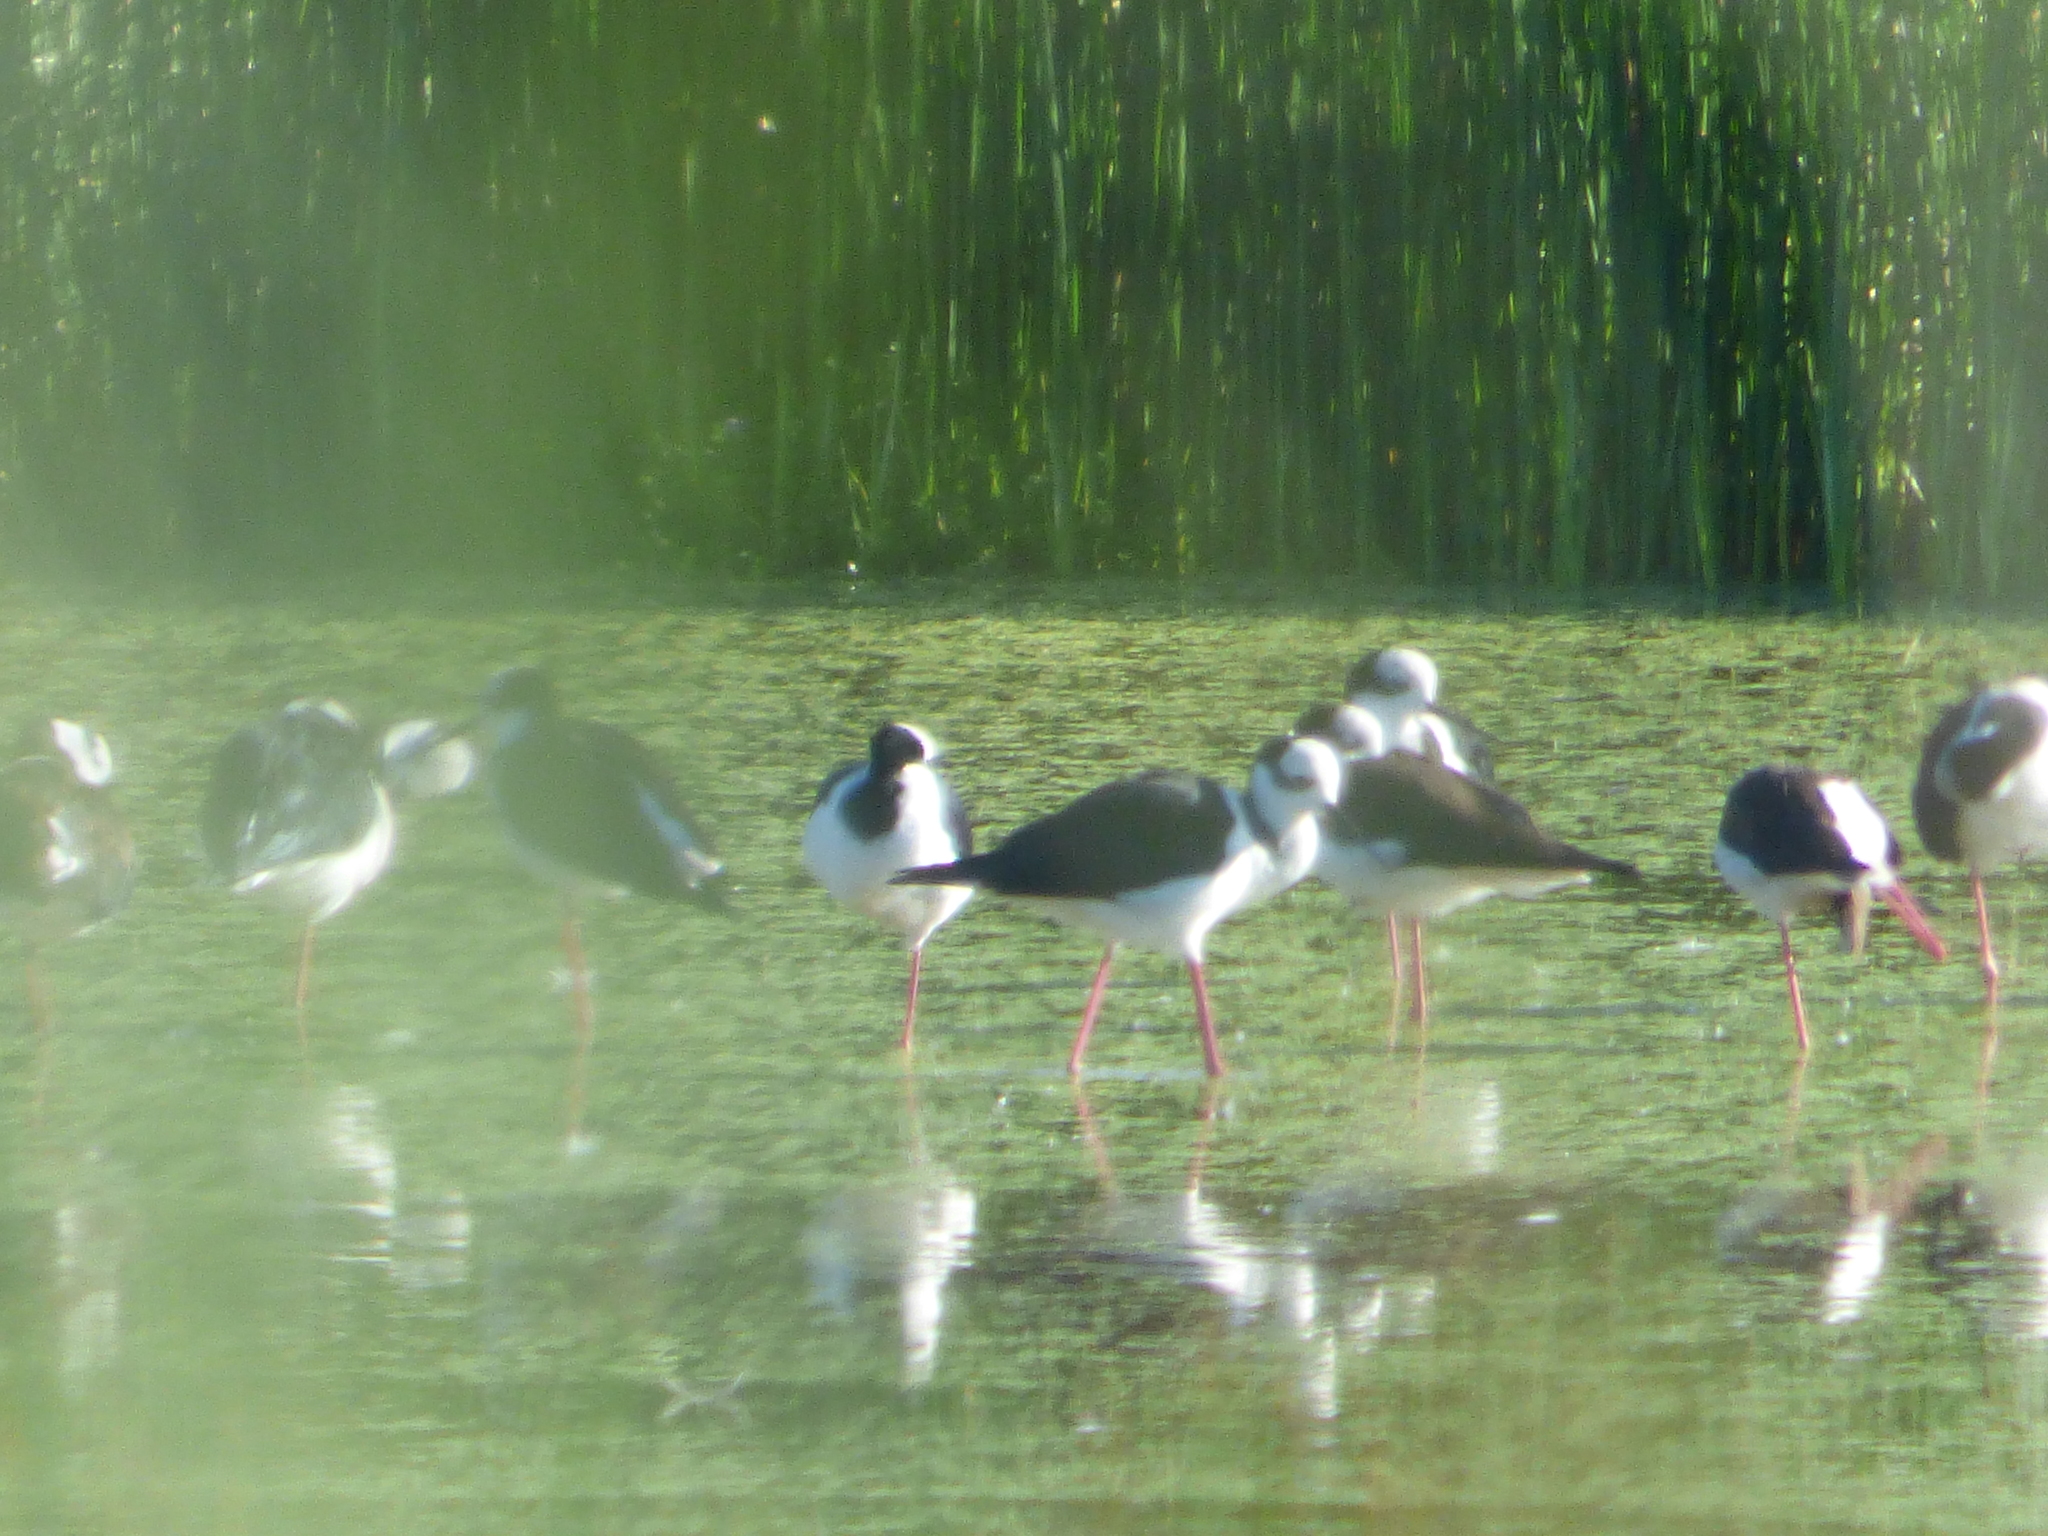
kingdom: Animalia
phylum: Chordata
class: Aves
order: Charadriiformes
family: Recurvirostridae
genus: Himantopus
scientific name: Himantopus mexicanus
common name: Black-necked stilt
